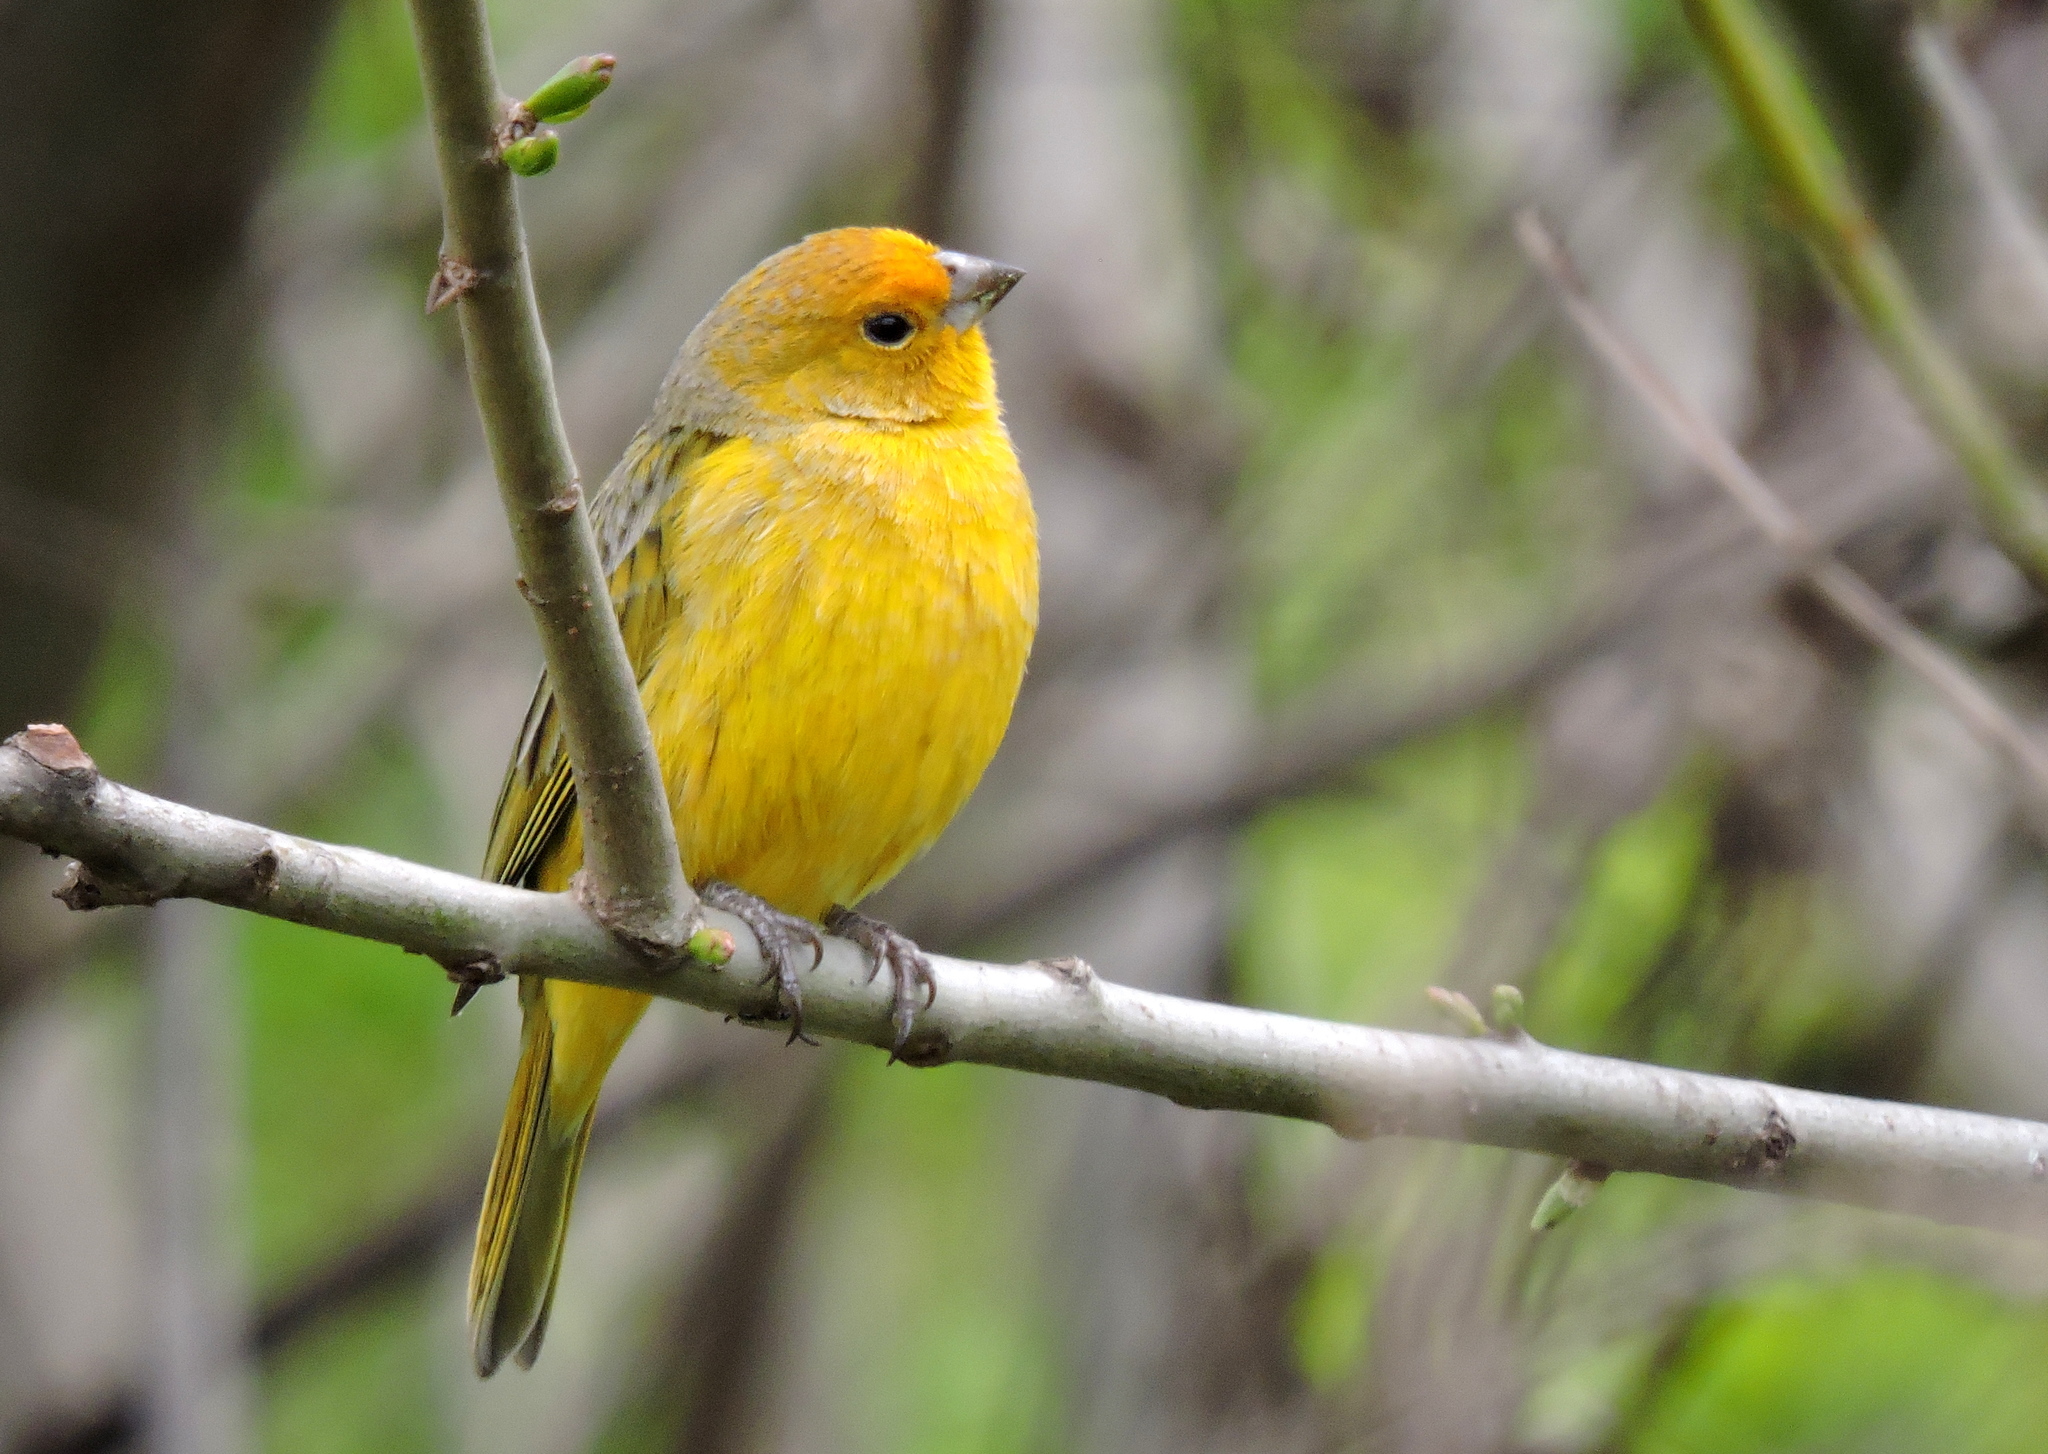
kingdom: Animalia
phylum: Chordata
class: Aves
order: Passeriformes
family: Thraupidae
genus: Sicalis
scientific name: Sicalis flaveola
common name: Saffron finch
